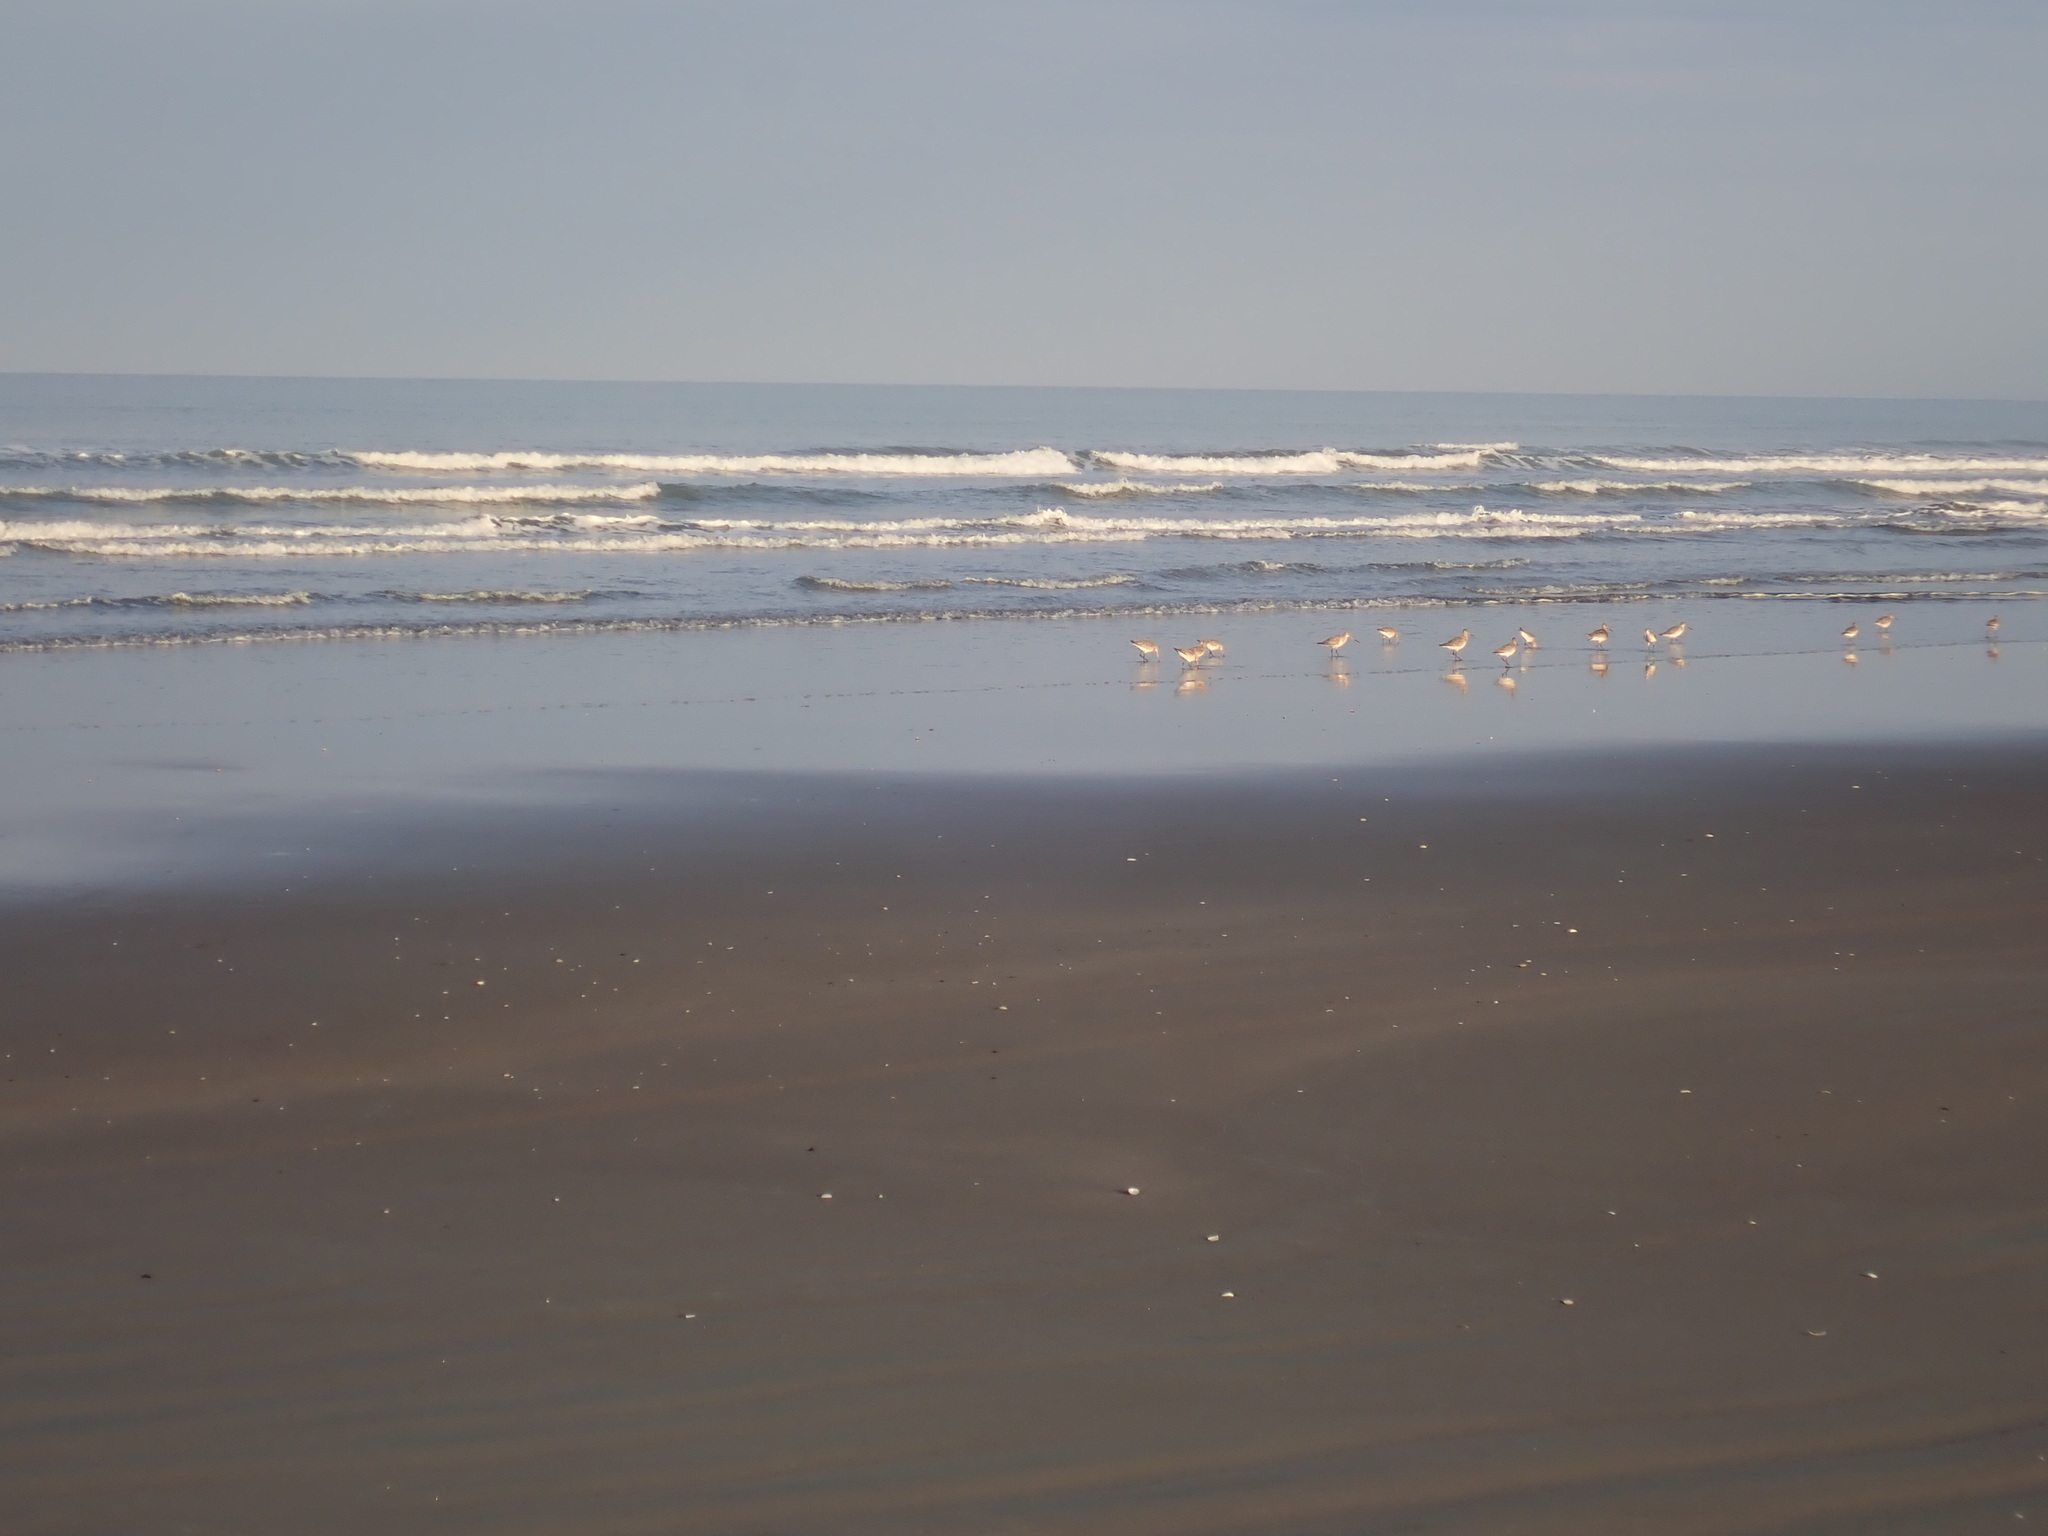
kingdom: Animalia
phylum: Chordata
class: Aves
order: Charadriiformes
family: Scolopacidae
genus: Limosa
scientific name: Limosa lapponica
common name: Bar-tailed godwit
